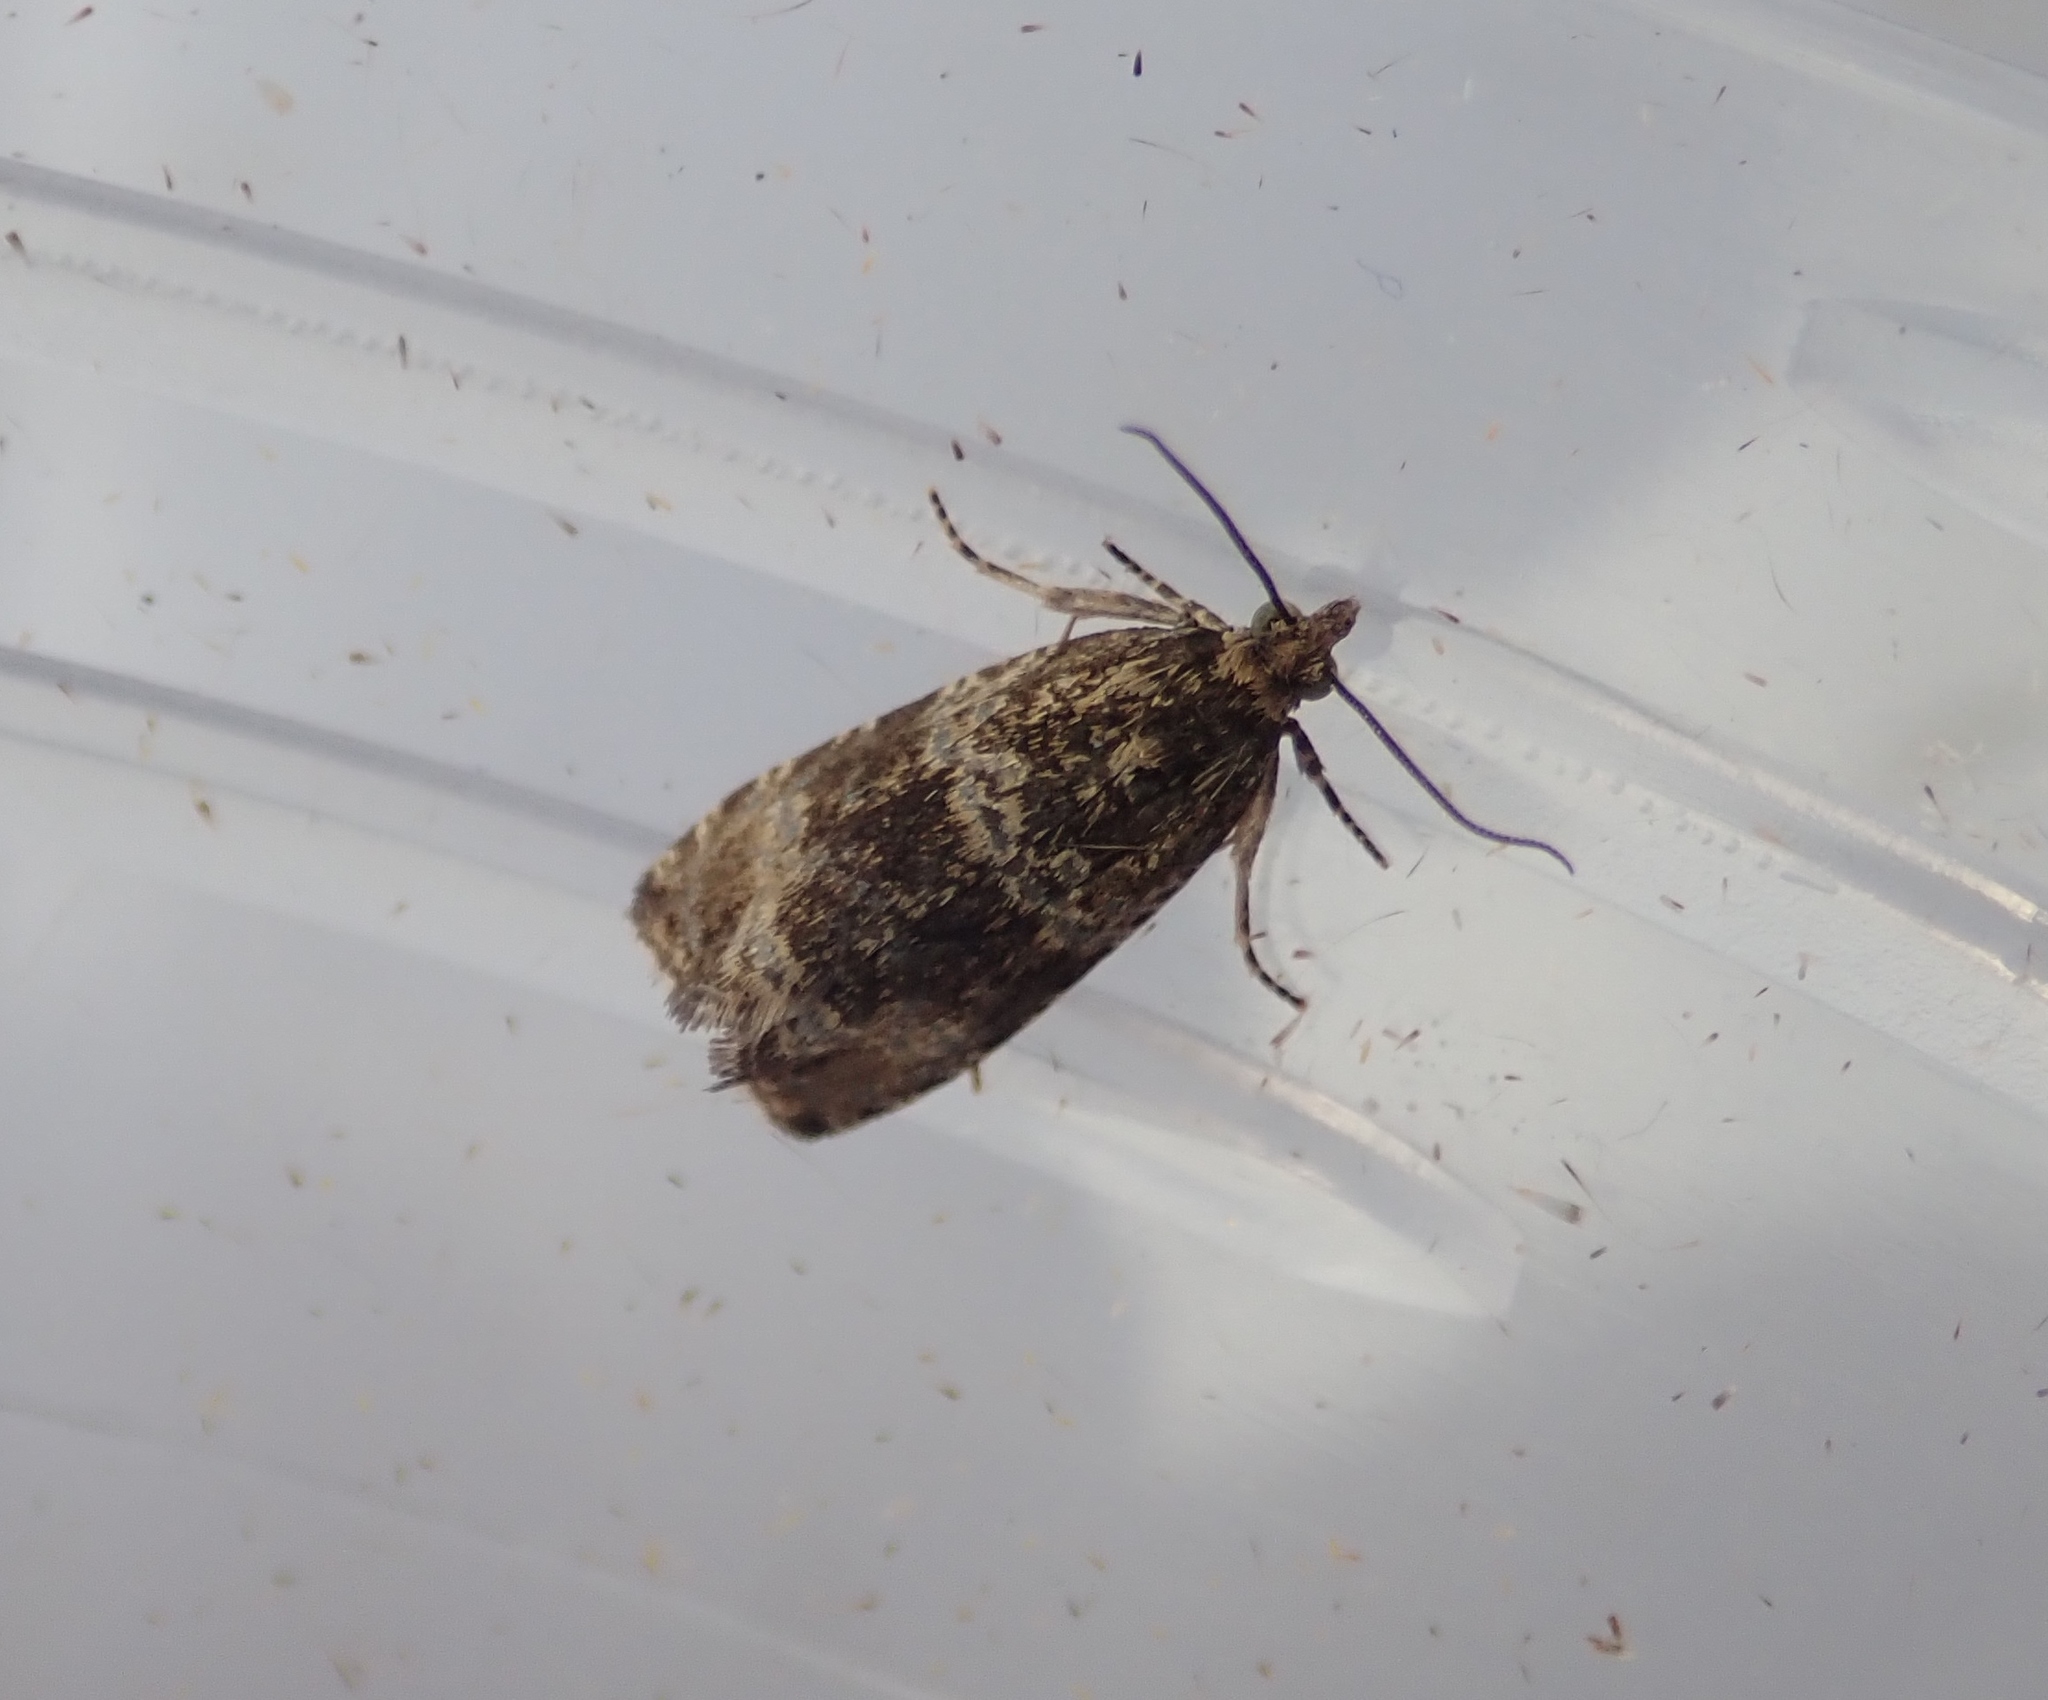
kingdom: Animalia
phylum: Arthropoda
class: Insecta
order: Lepidoptera
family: Tortricidae
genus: Syricoris
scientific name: Syricoris lacunana
